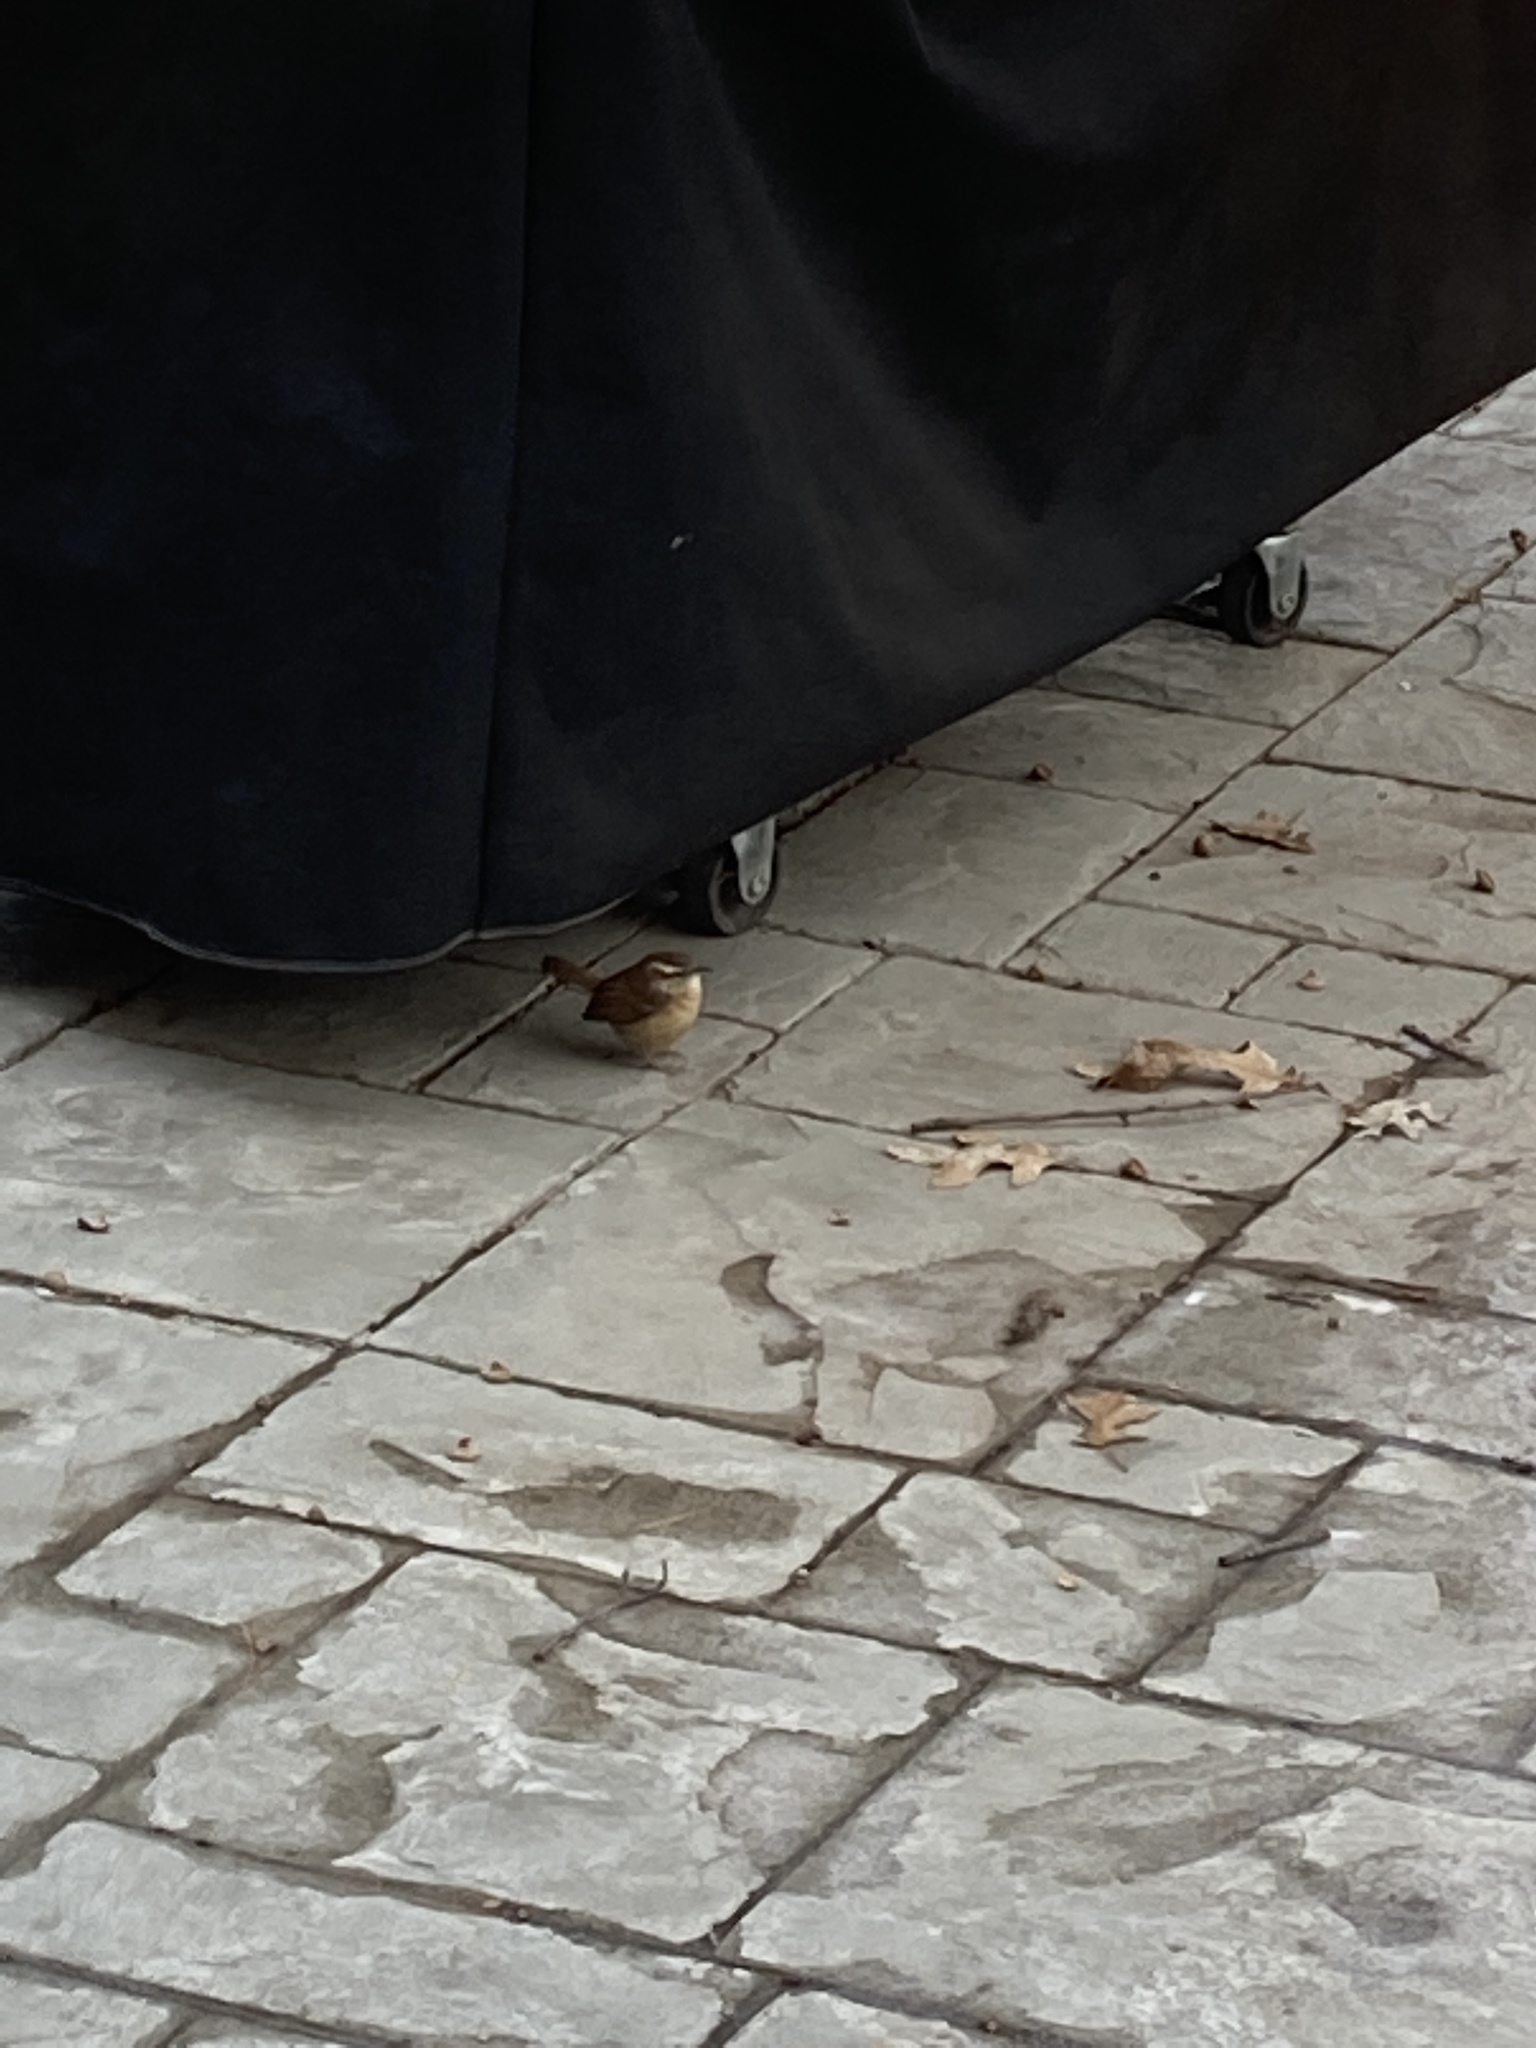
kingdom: Animalia
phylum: Chordata
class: Aves
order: Passeriformes
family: Troglodytidae
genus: Thryothorus
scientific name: Thryothorus ludovicianus
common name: Carolina wren
